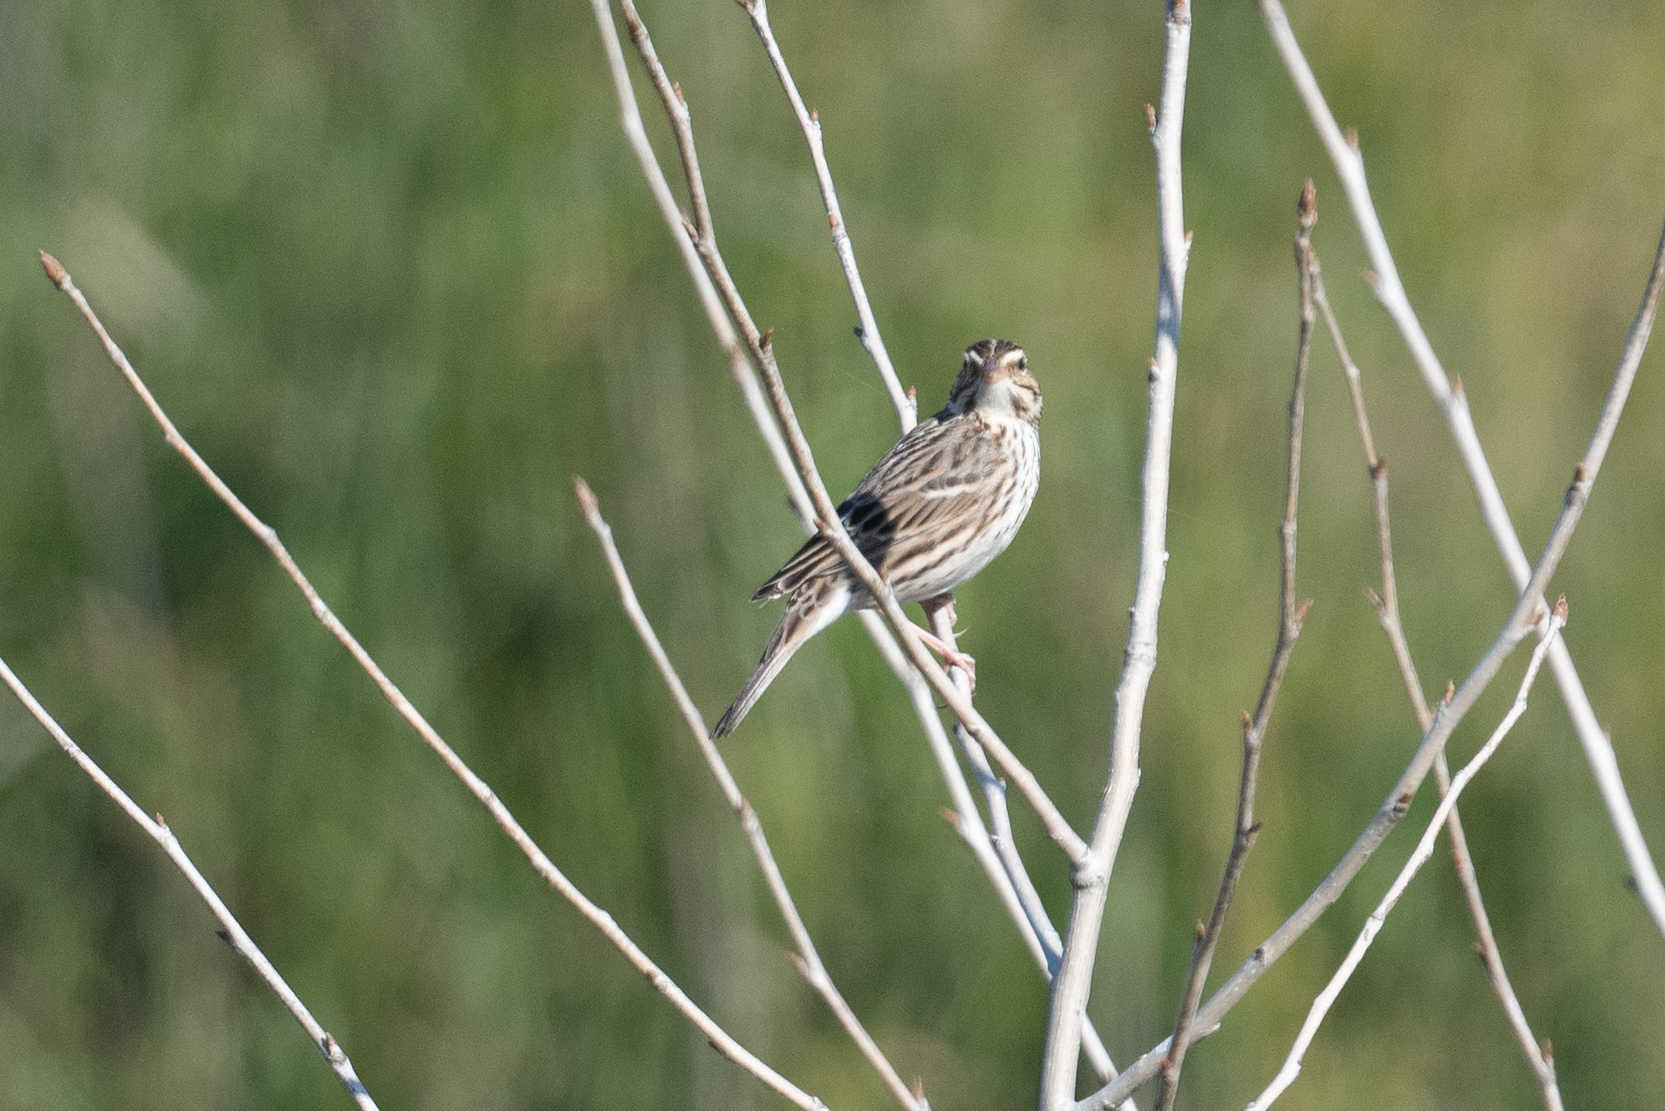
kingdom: Animalia
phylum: Chordata
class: Aves
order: Passeriformes
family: Passerellidae
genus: Passerculus
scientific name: Passerculus sandwichensis
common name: Savannah sparrow
